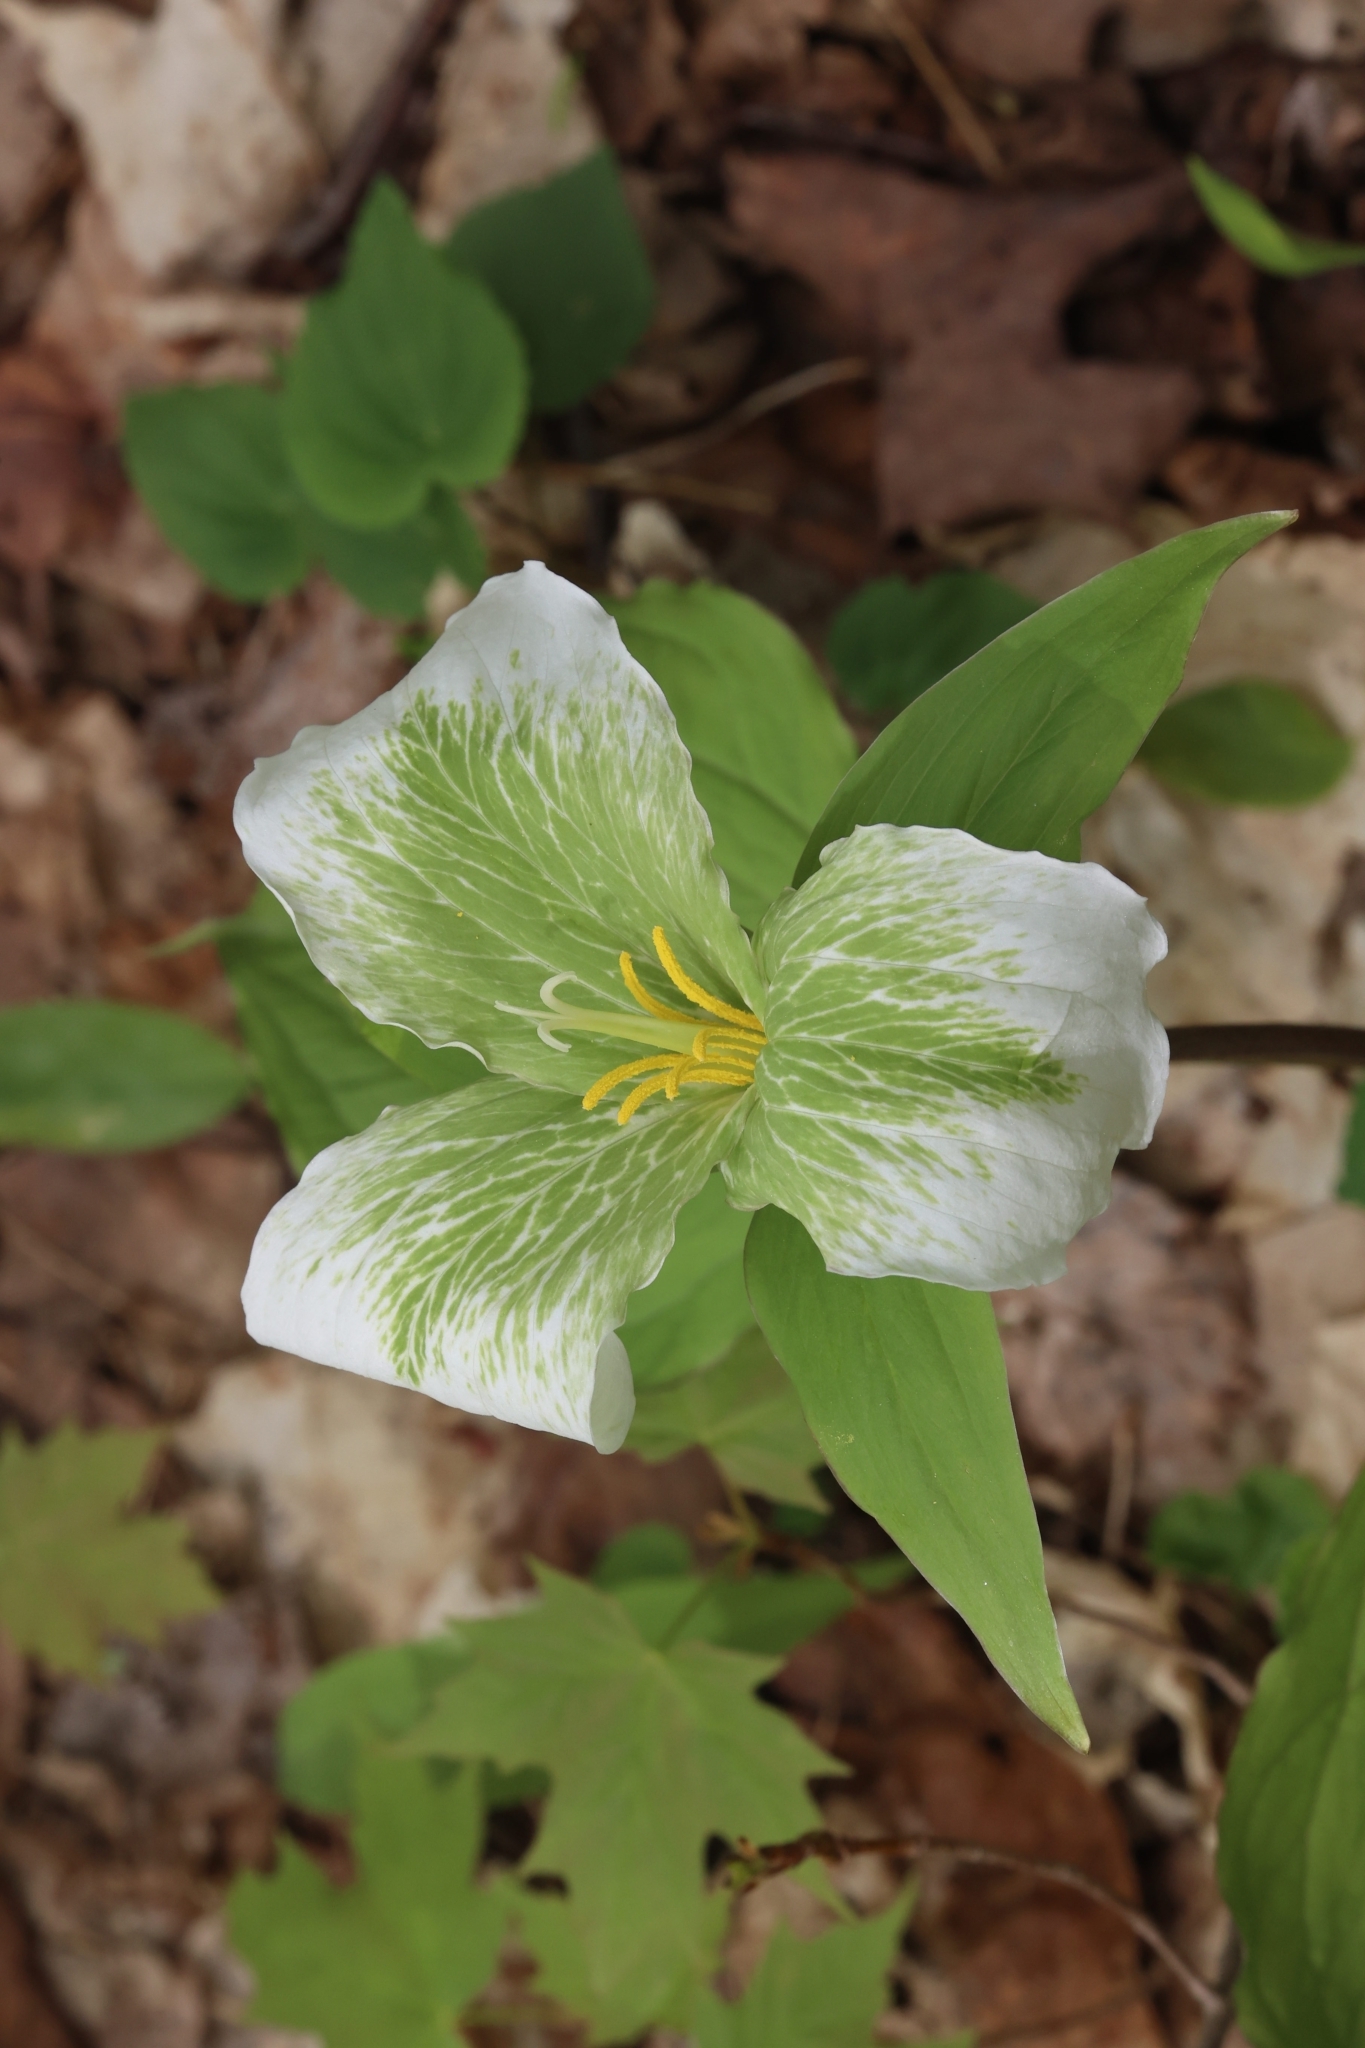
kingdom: Plantae
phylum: Tracheophyta
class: Liliopsida
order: Liliales
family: Melanthiaceae
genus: Trillium
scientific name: Trillium grandiflorum
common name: Great white trillium
